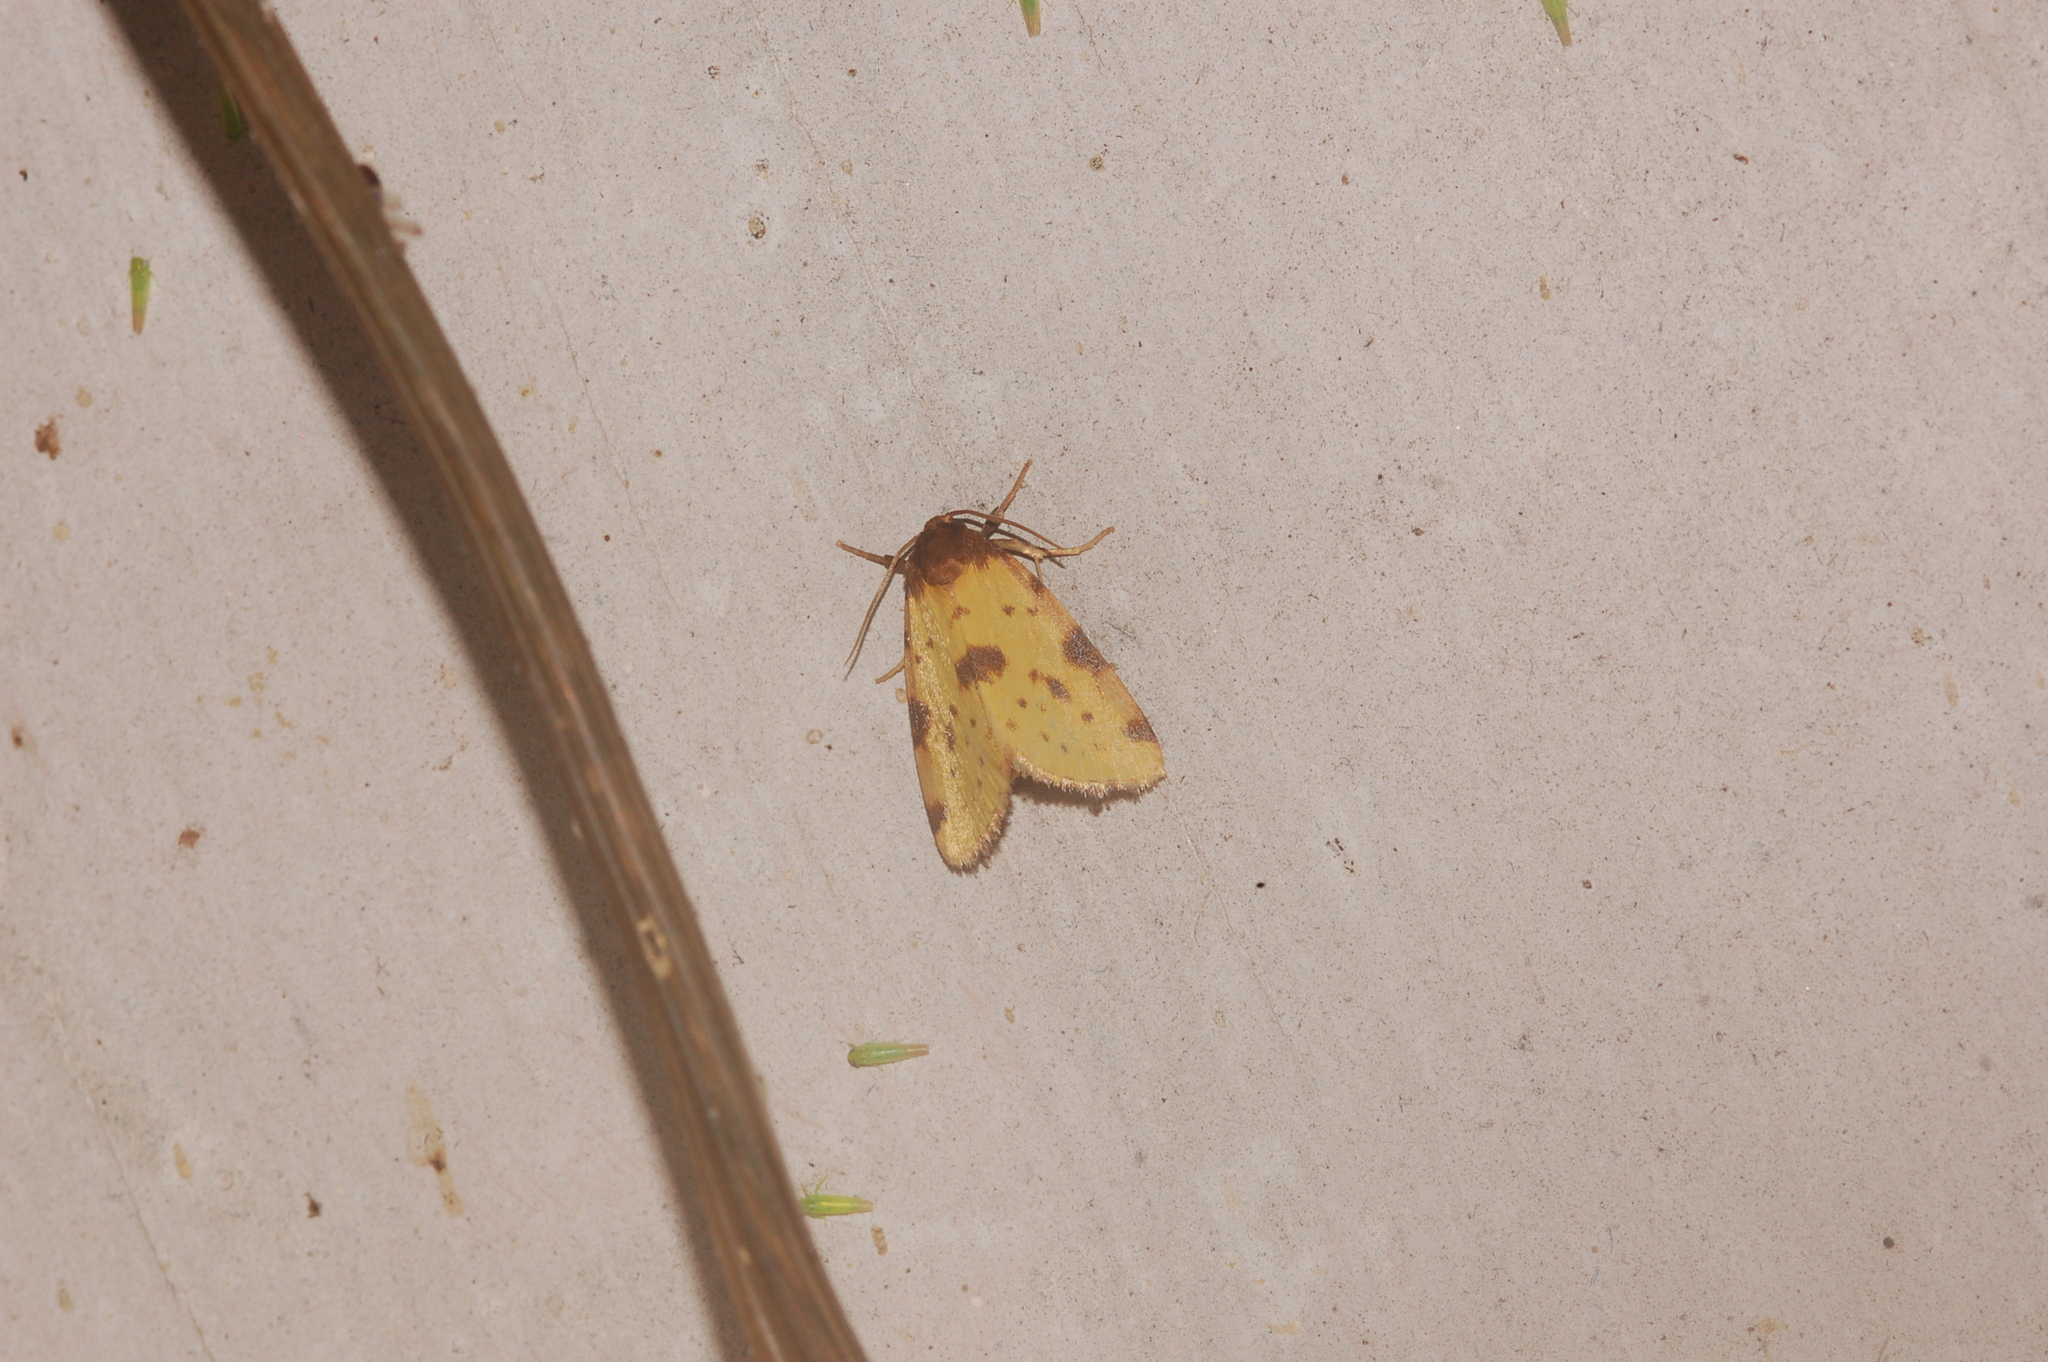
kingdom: Animalia
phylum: Arthropoda
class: Insecta
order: Lepidoptera
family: Noctuidae
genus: Azenia
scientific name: Azenia obtusa
